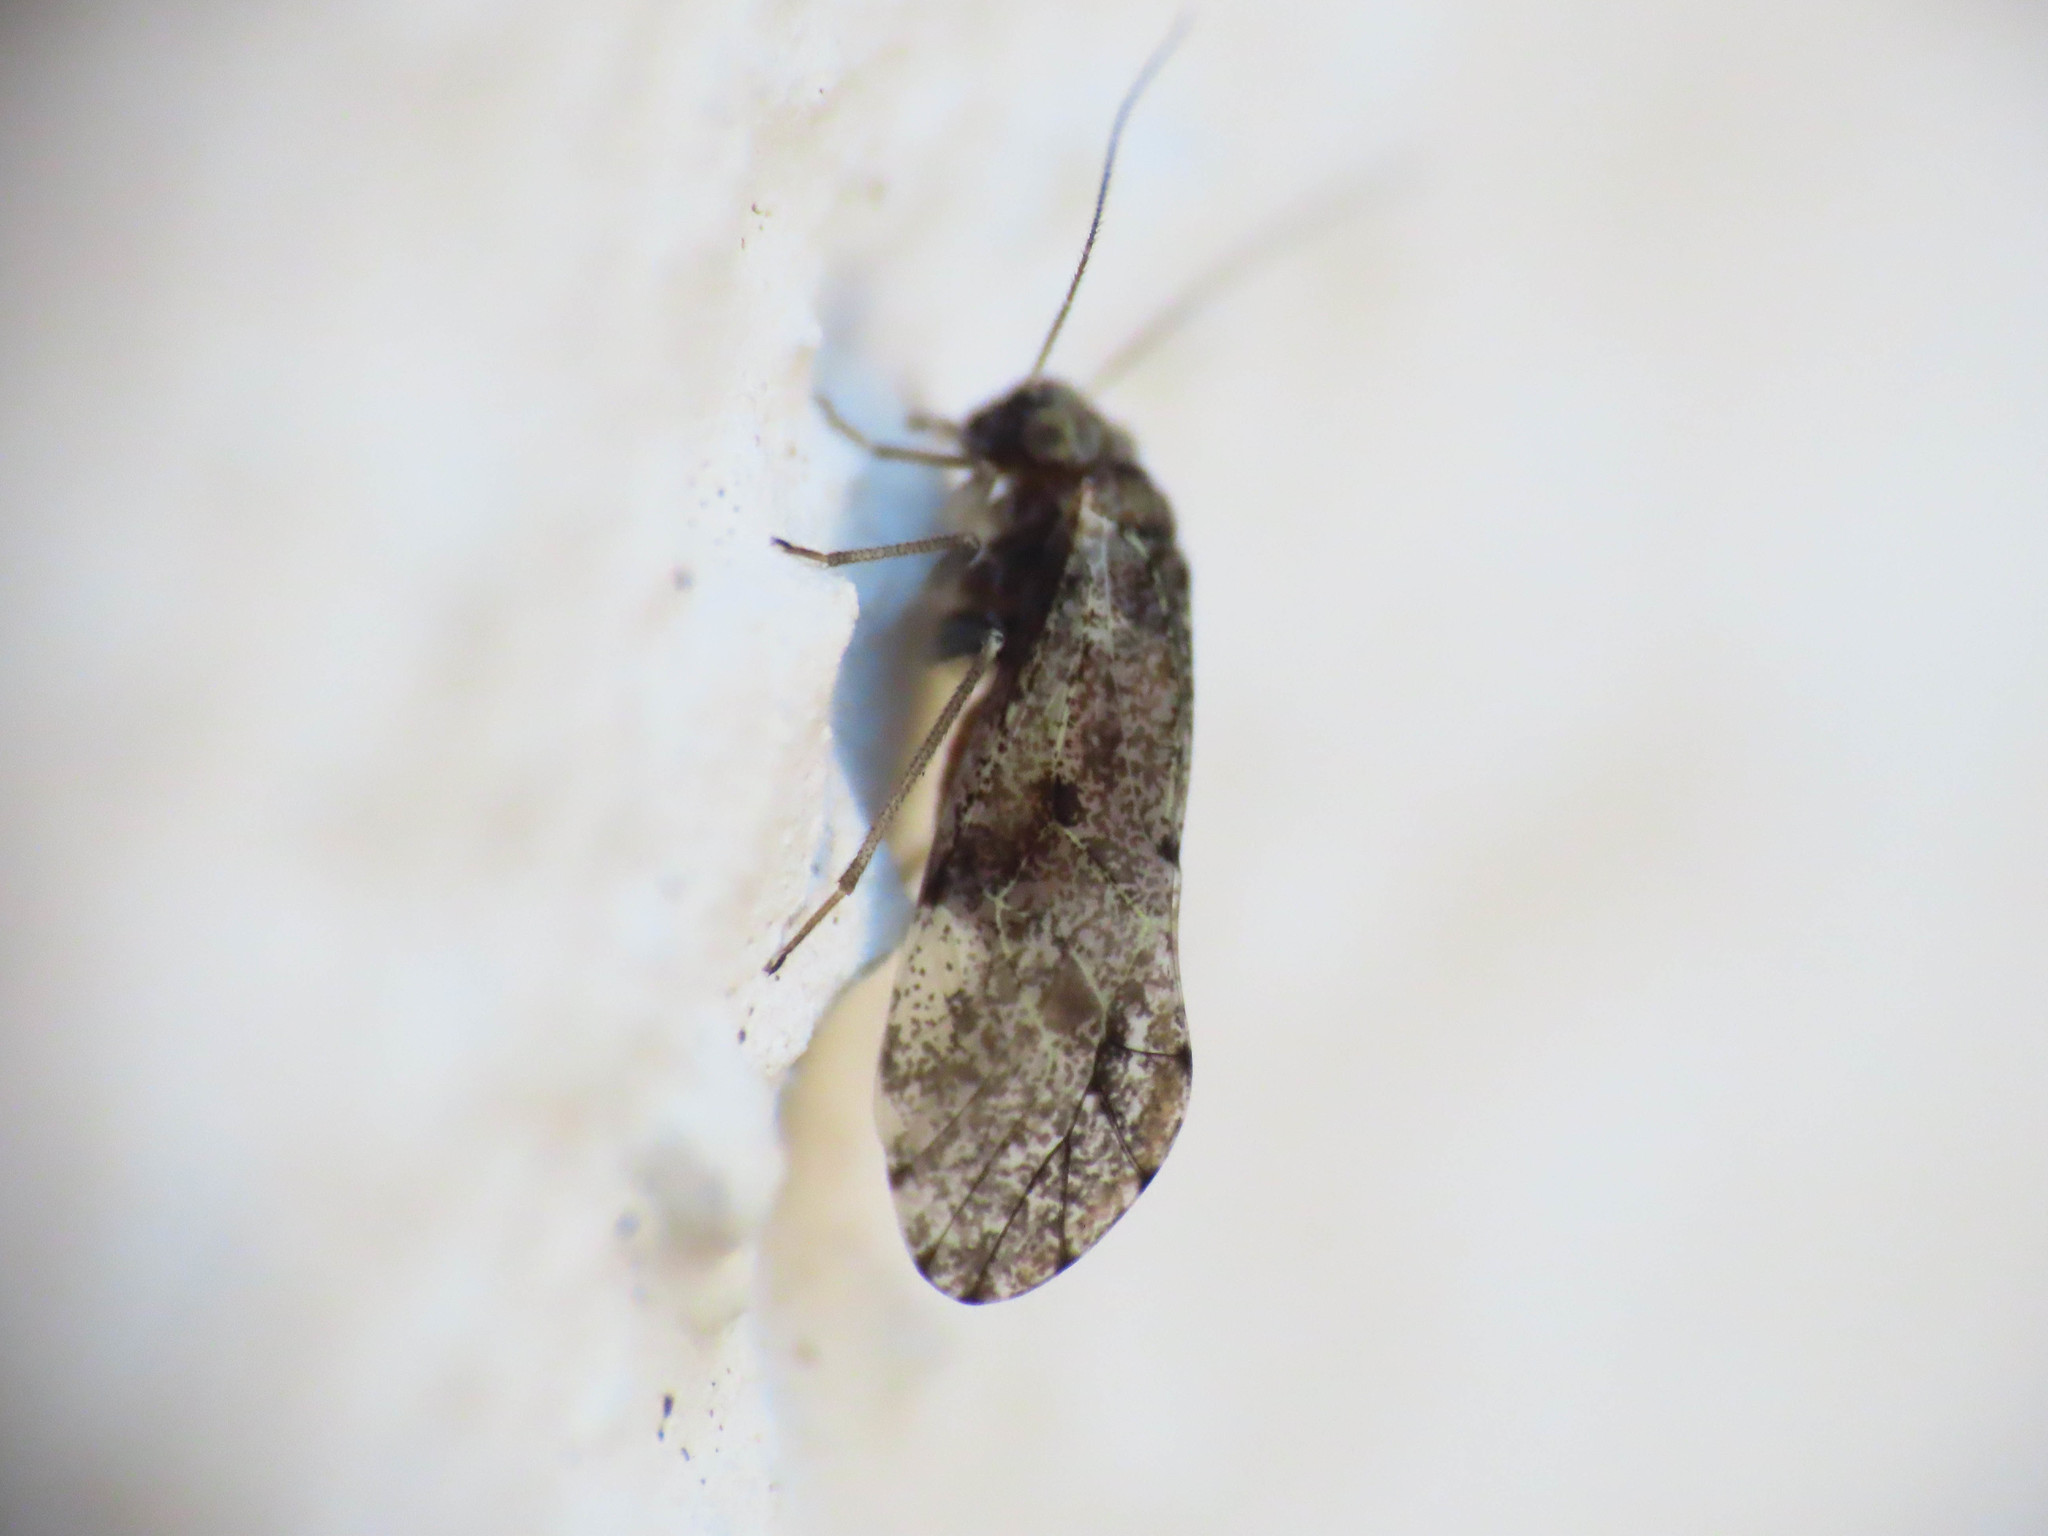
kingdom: Animalia
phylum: Arthropoda
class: Insecta
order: Psocodea
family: Psocidae
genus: Loensia
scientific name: Loensia variegata
